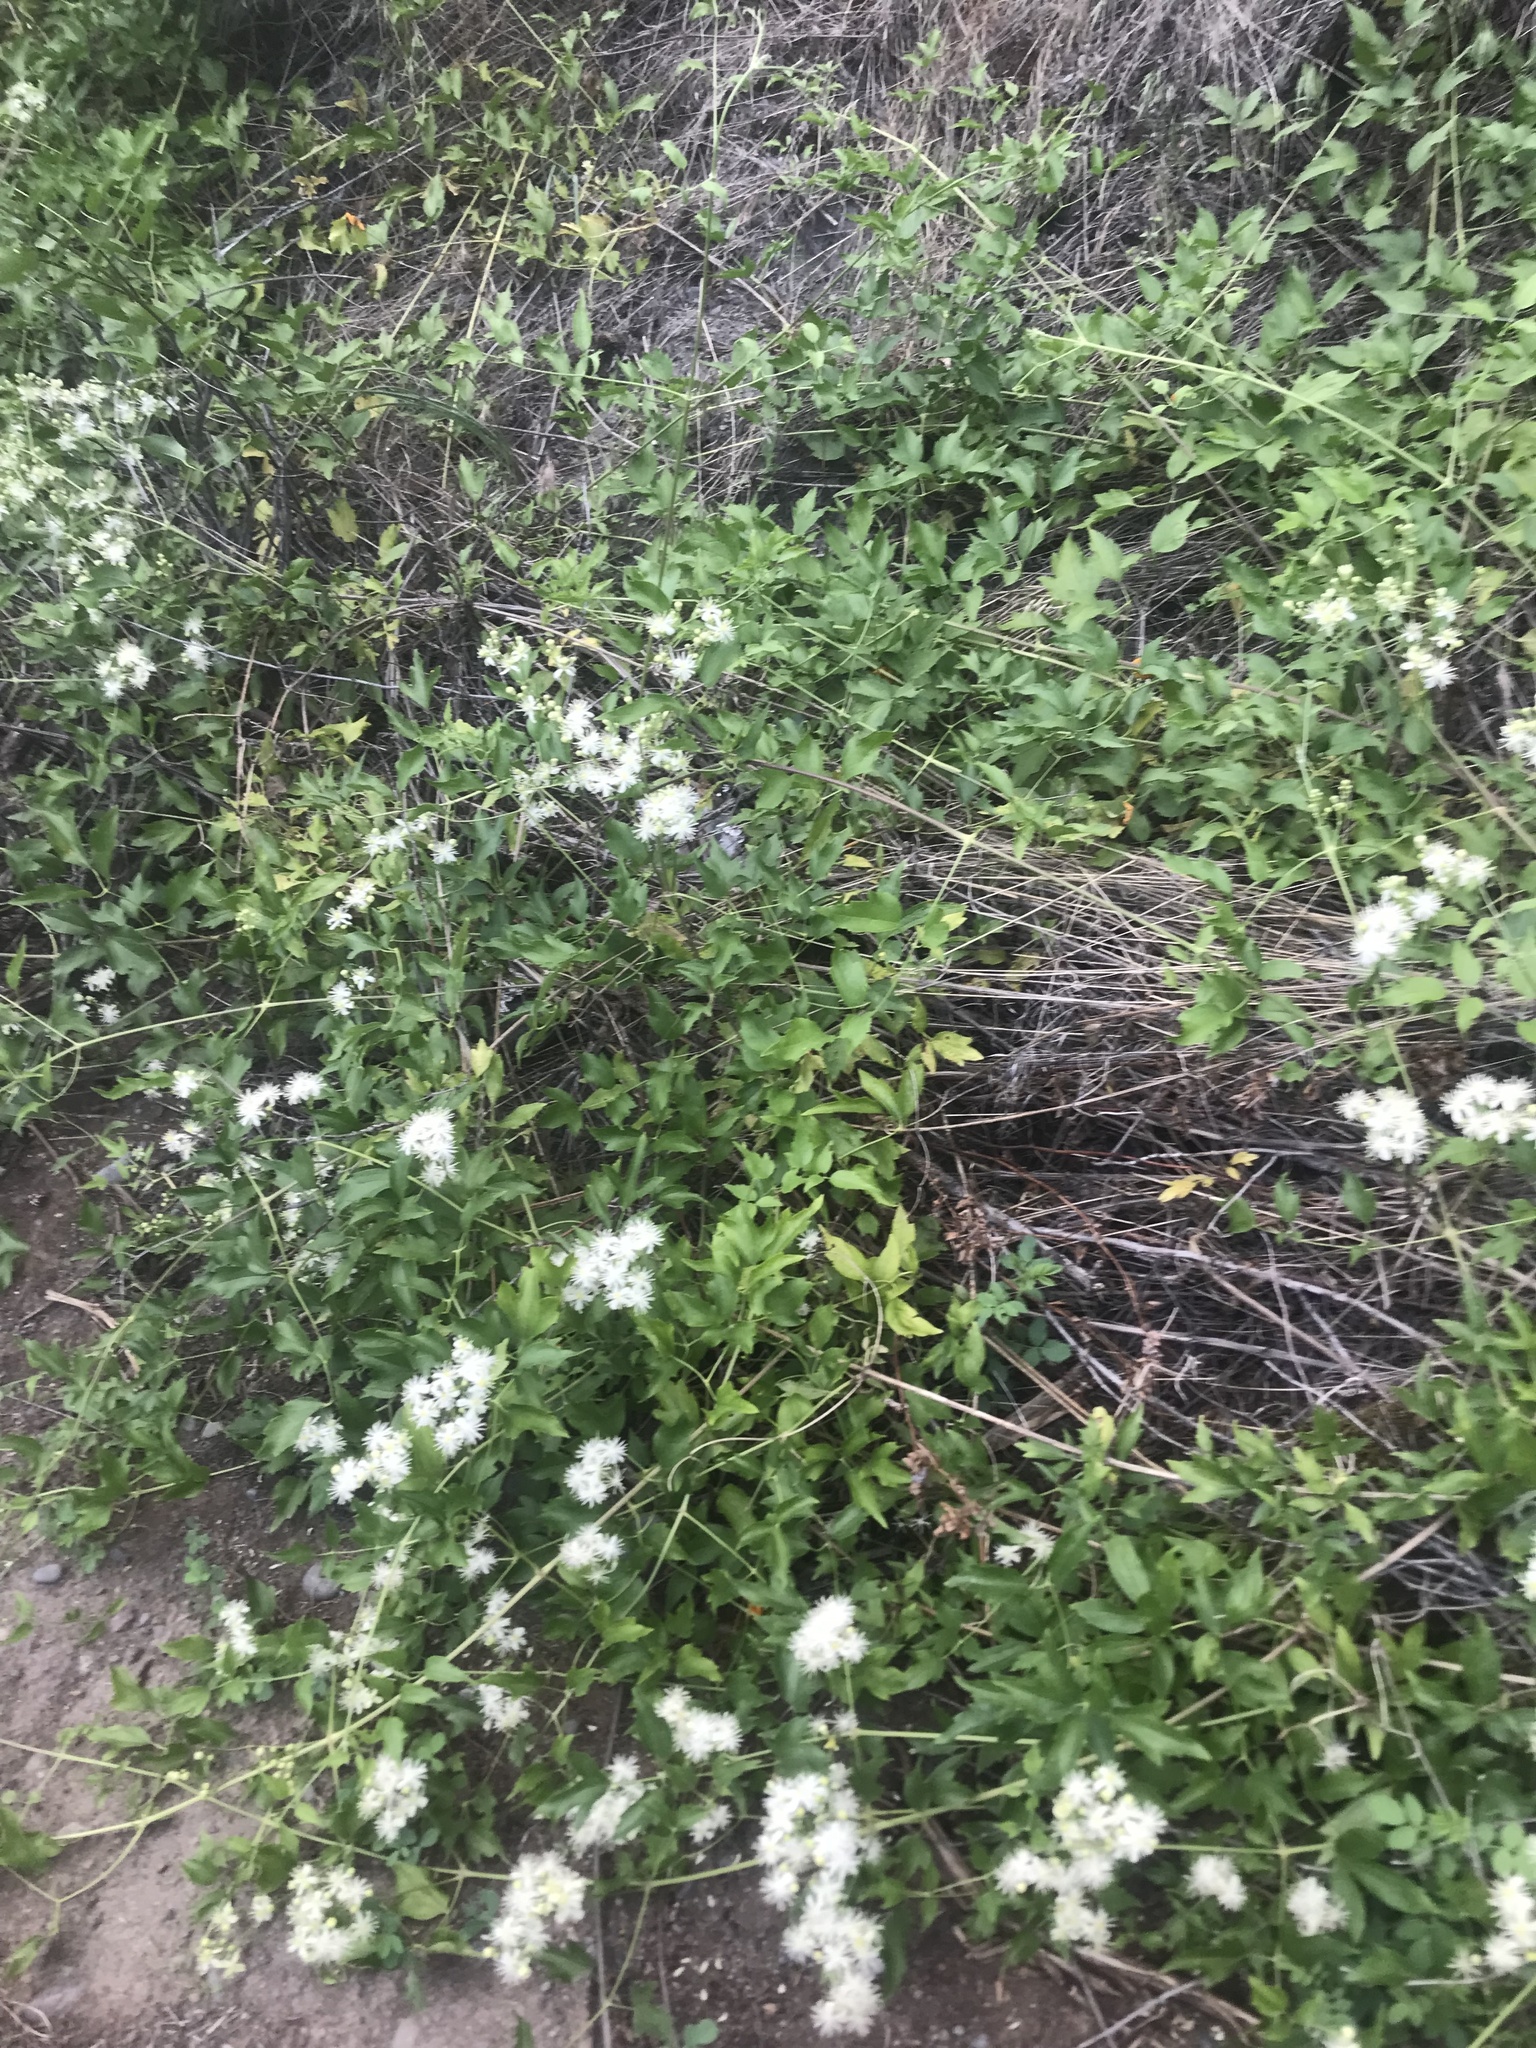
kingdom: Plantae
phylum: Tracheophyta
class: Magnoliopsida
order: Ranunculales
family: Ranunculaceae
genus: Clematis
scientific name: Clematis ligusticifolia
